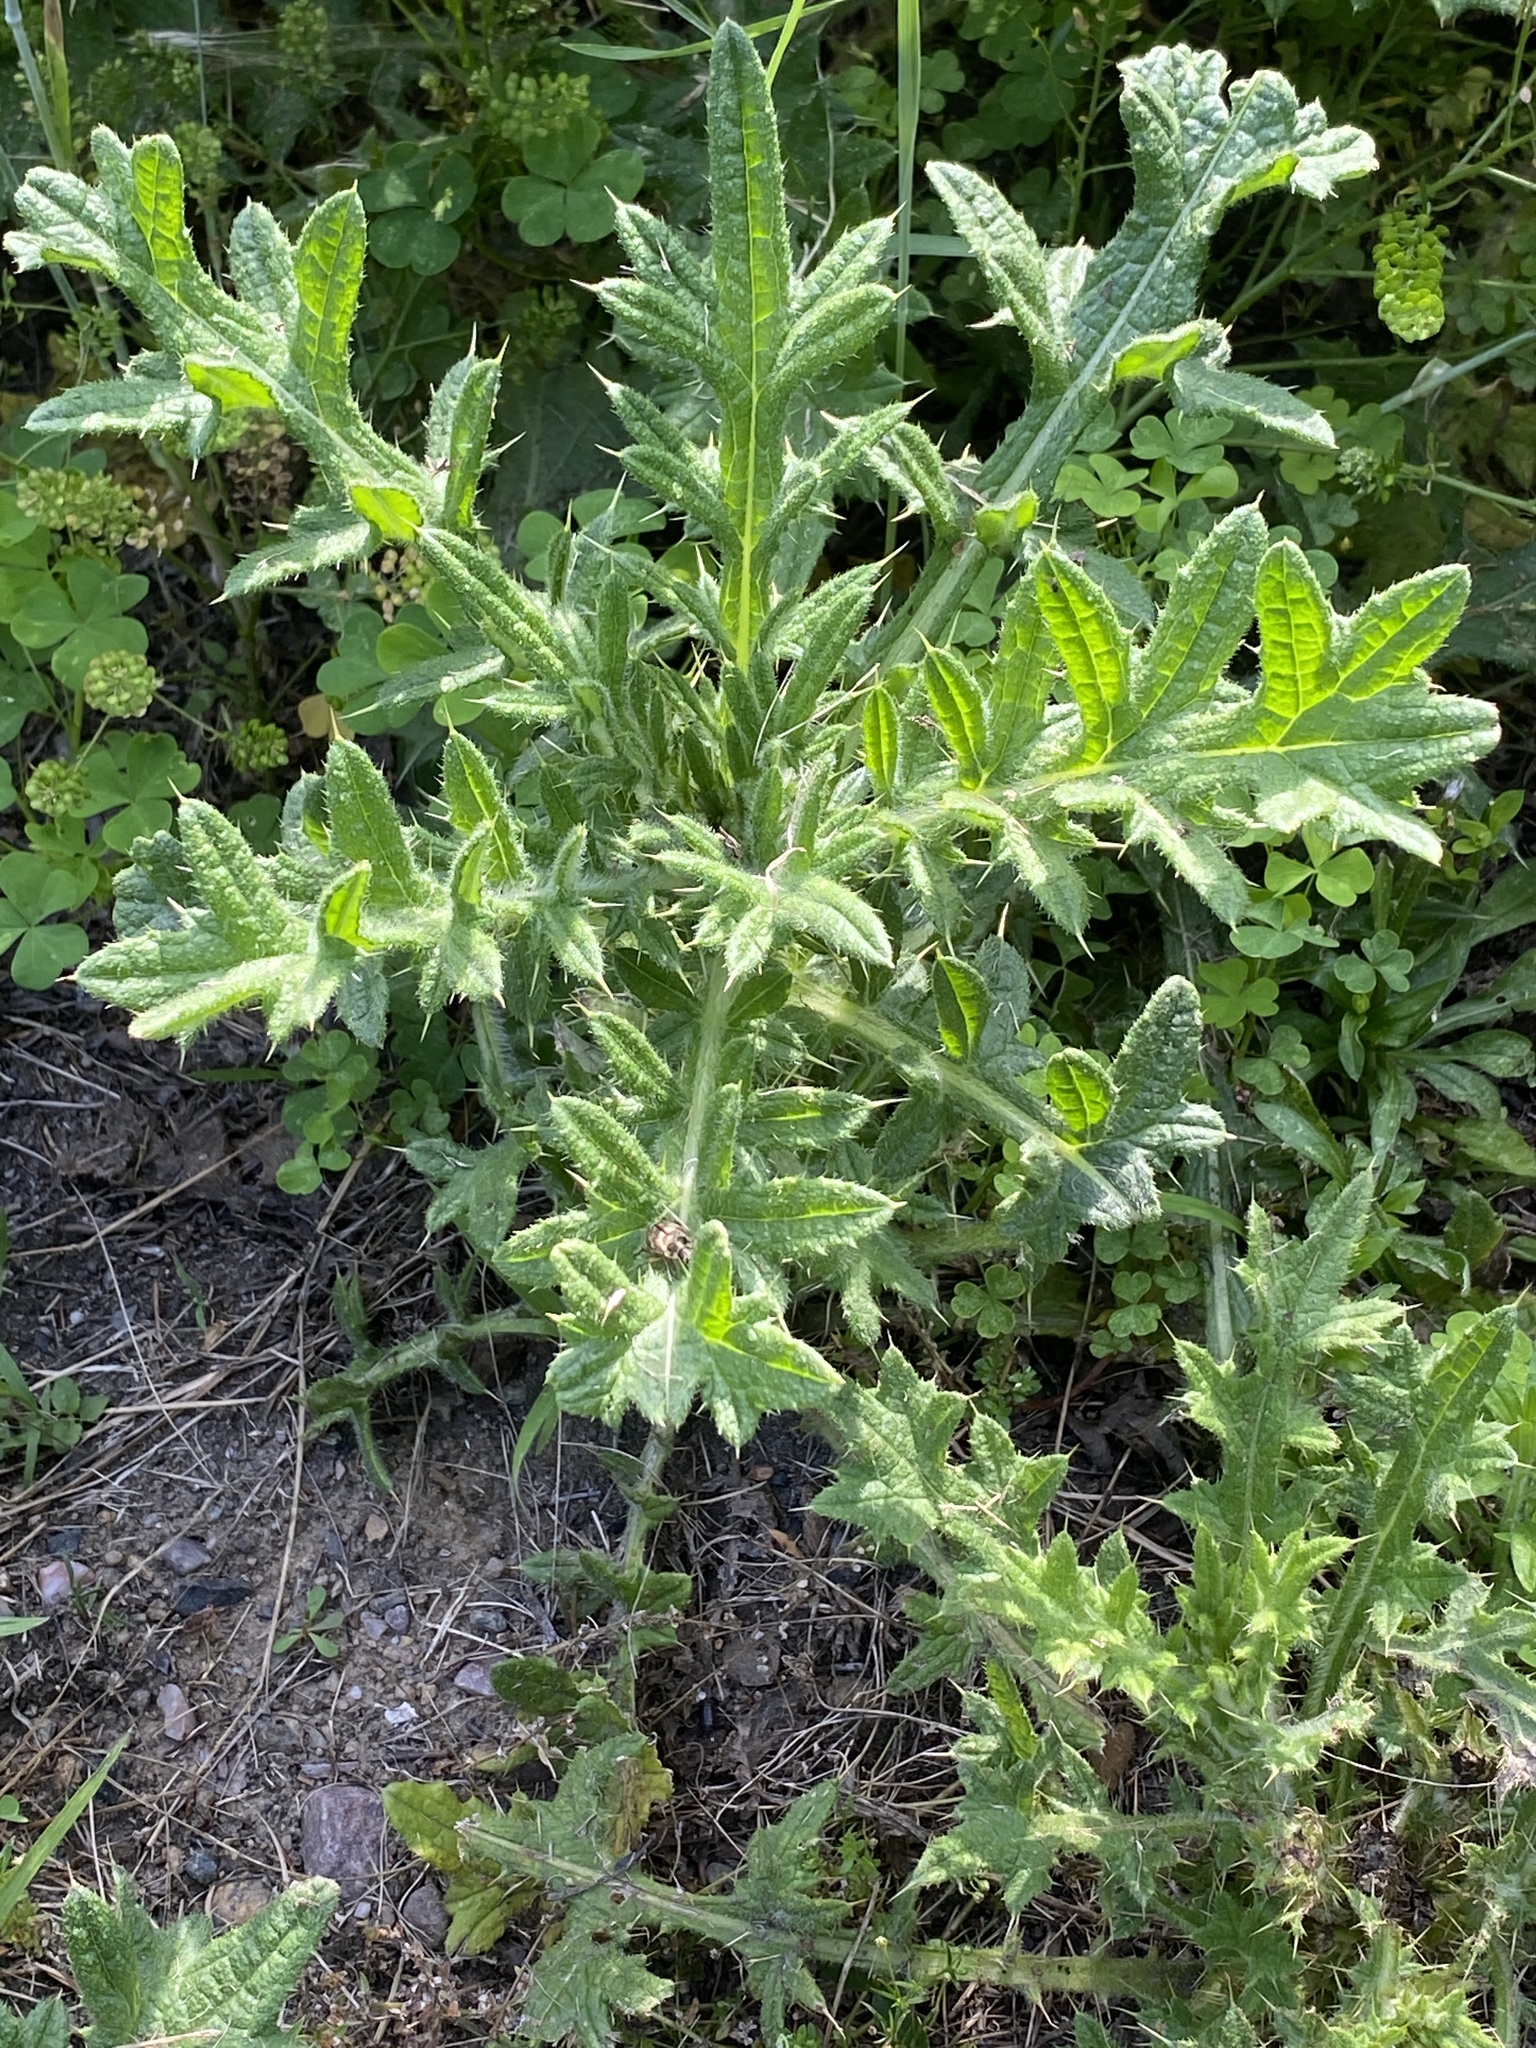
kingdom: Plantae
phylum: Tracheophyta
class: Magnoliopsida
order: Asterales
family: Asteraceae
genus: Cirsium
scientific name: Cirsium vulgare
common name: Bull thistle
